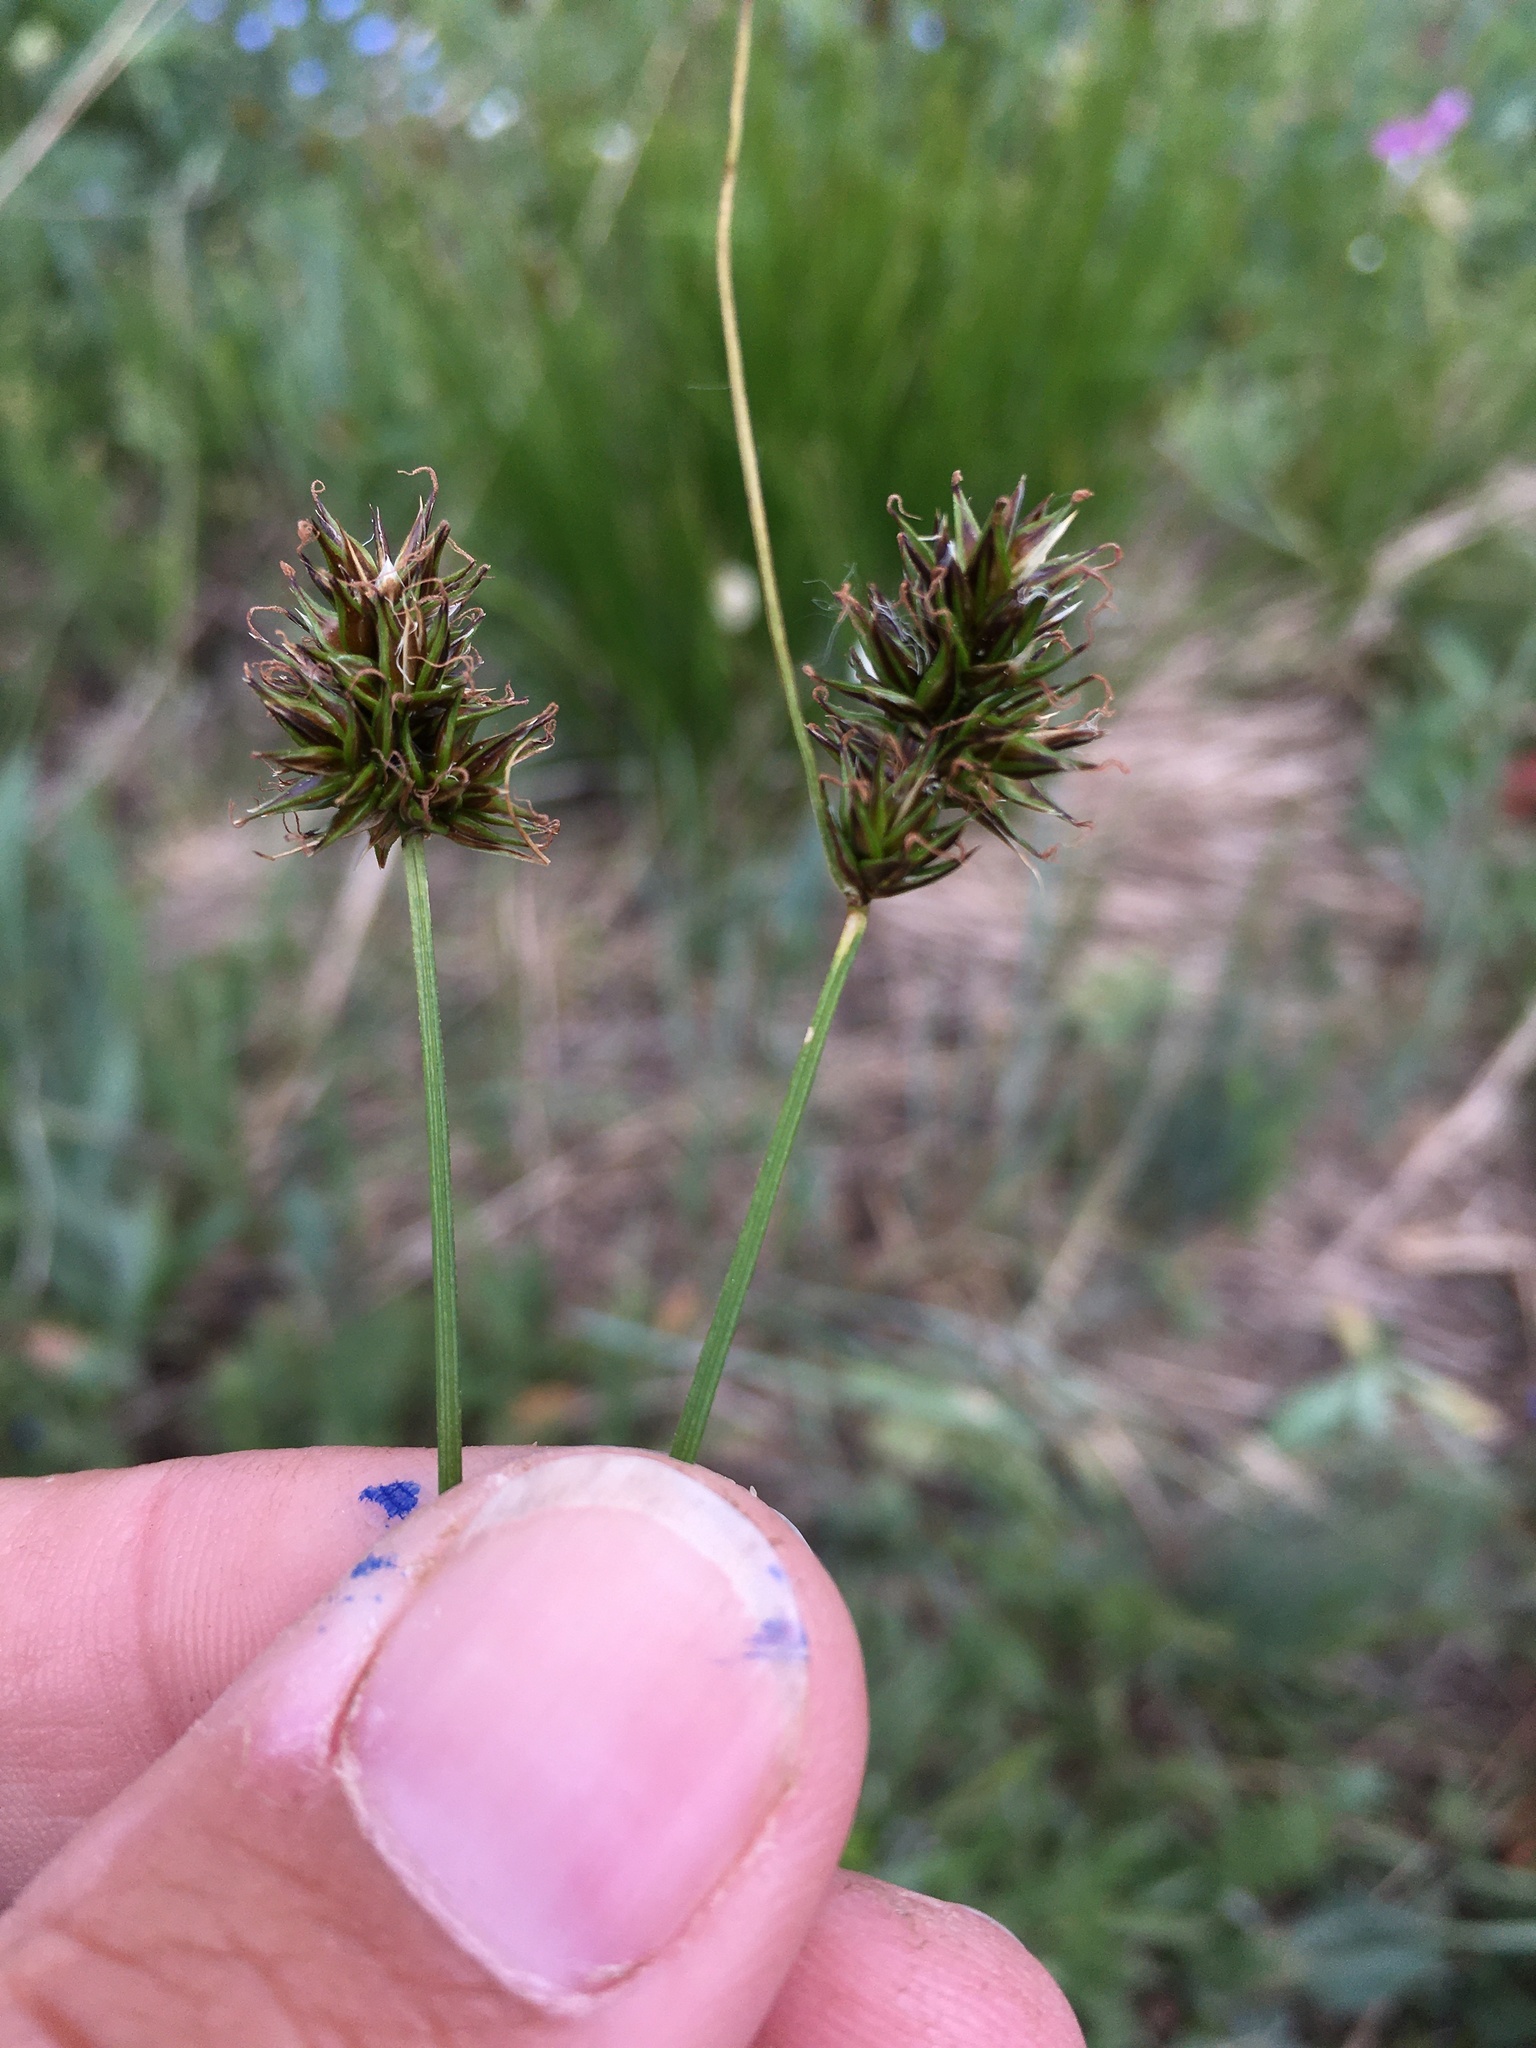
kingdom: Plantae
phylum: Tracheophyta
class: Liliopsida
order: Poales
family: Cyperaceae
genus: Carex
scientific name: Carex hoodii
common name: Hood's sedge
